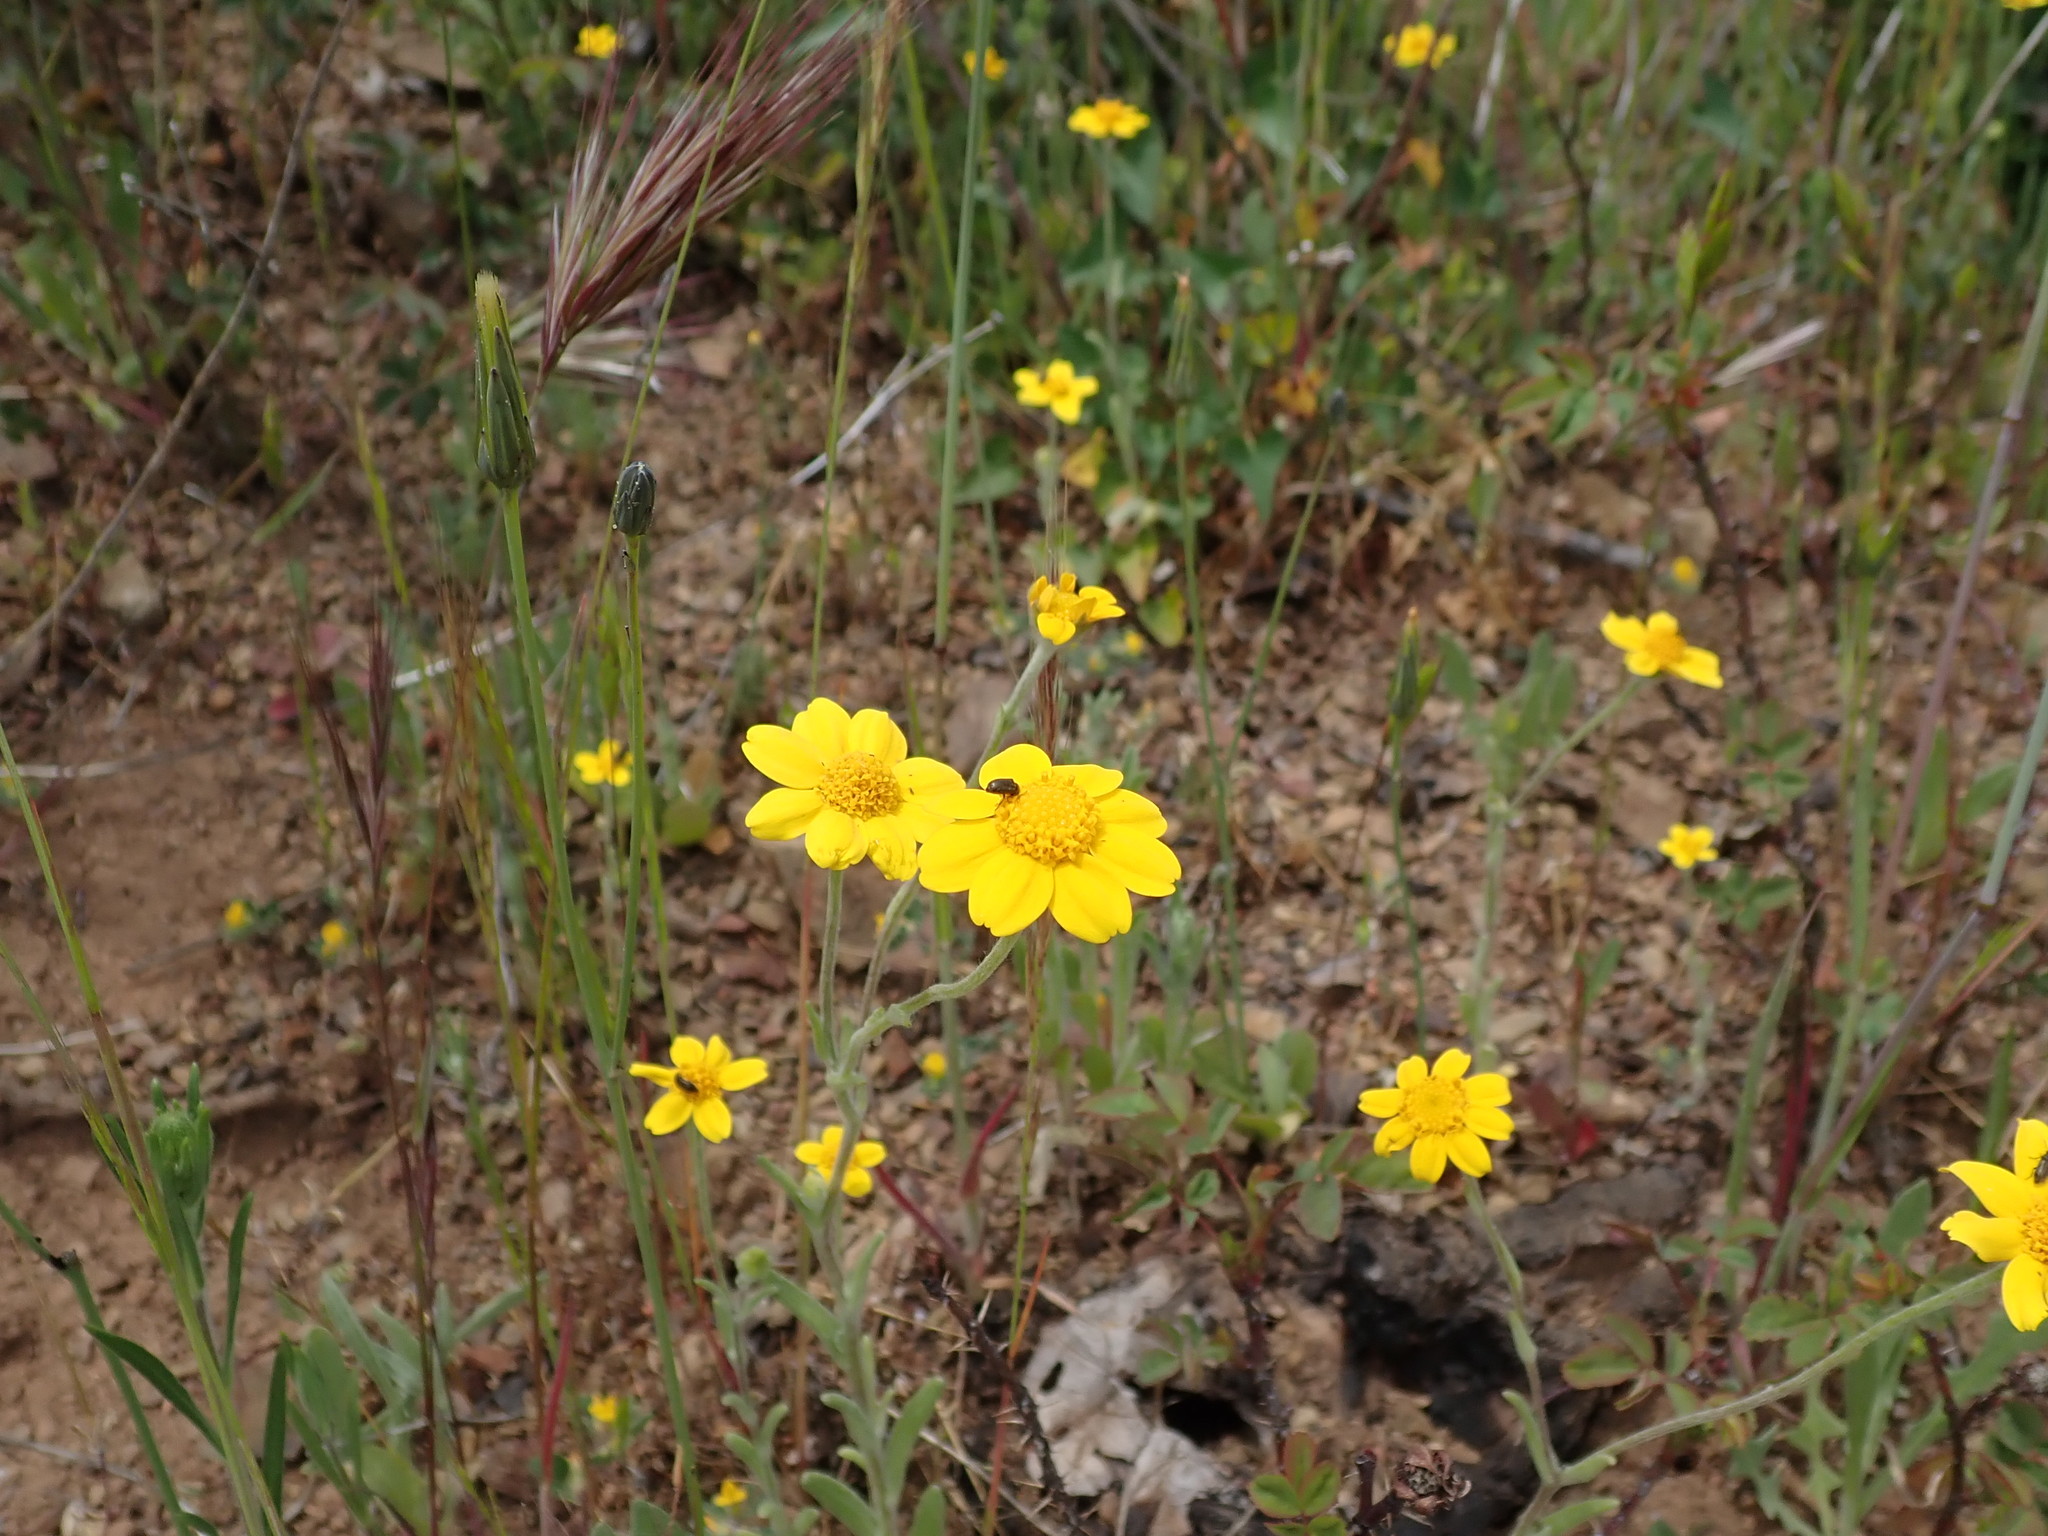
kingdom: Plantae
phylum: Tracheophyta
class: Magnoliopsida
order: Asterales
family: Asteraceae
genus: Monolopia
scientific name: Monolopia gracilens
